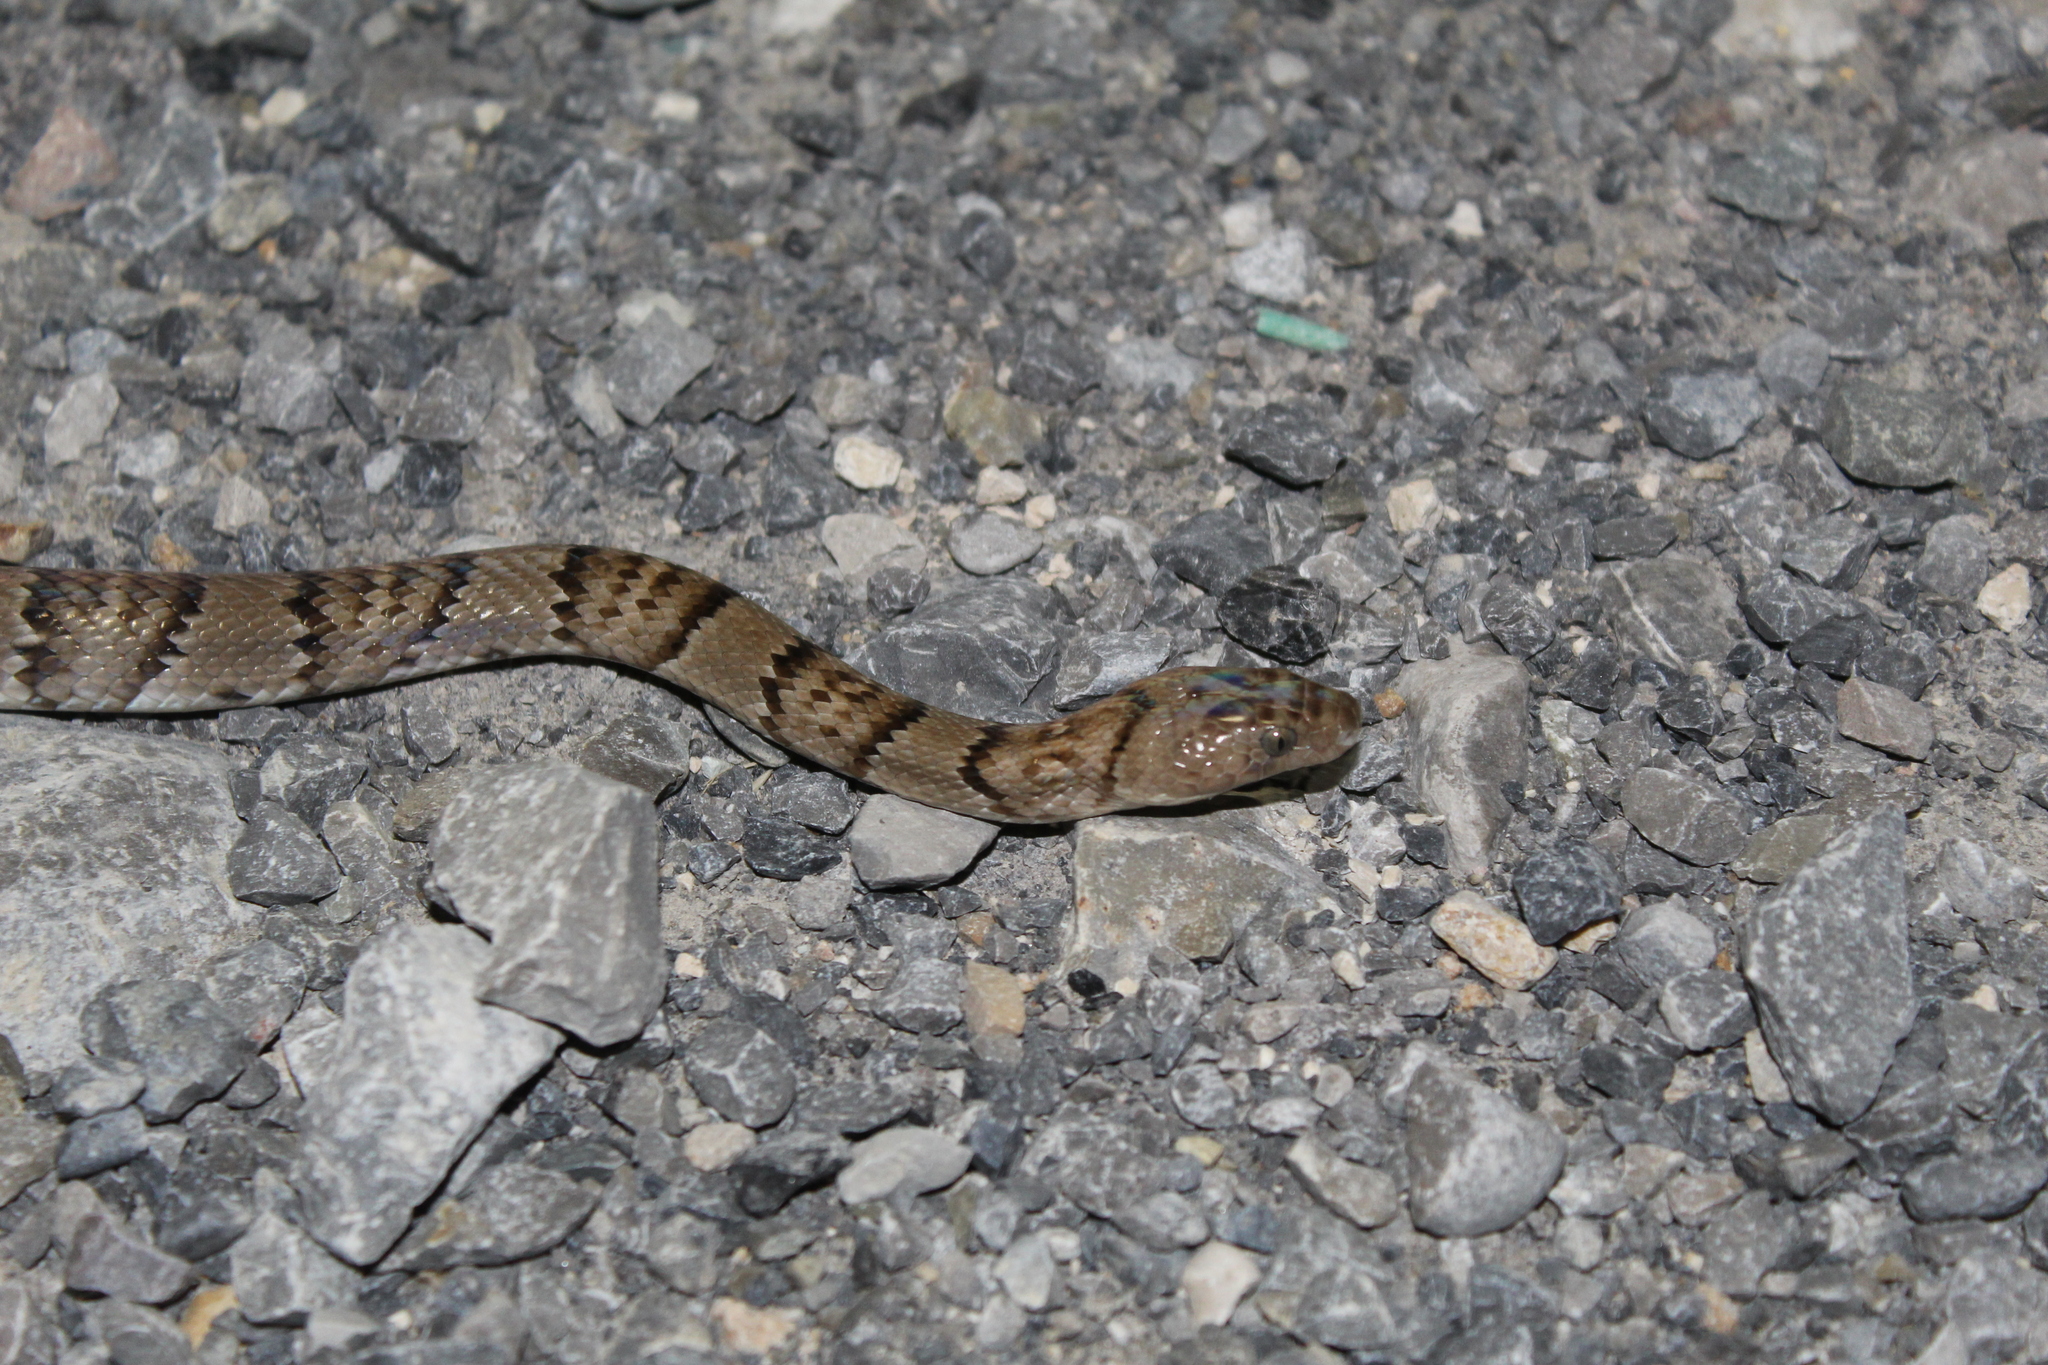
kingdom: Animalia
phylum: Chordata
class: Squamata
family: Colubridae
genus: Trimorphodon
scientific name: Trimorphodon tau
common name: Mexican lyre snake
